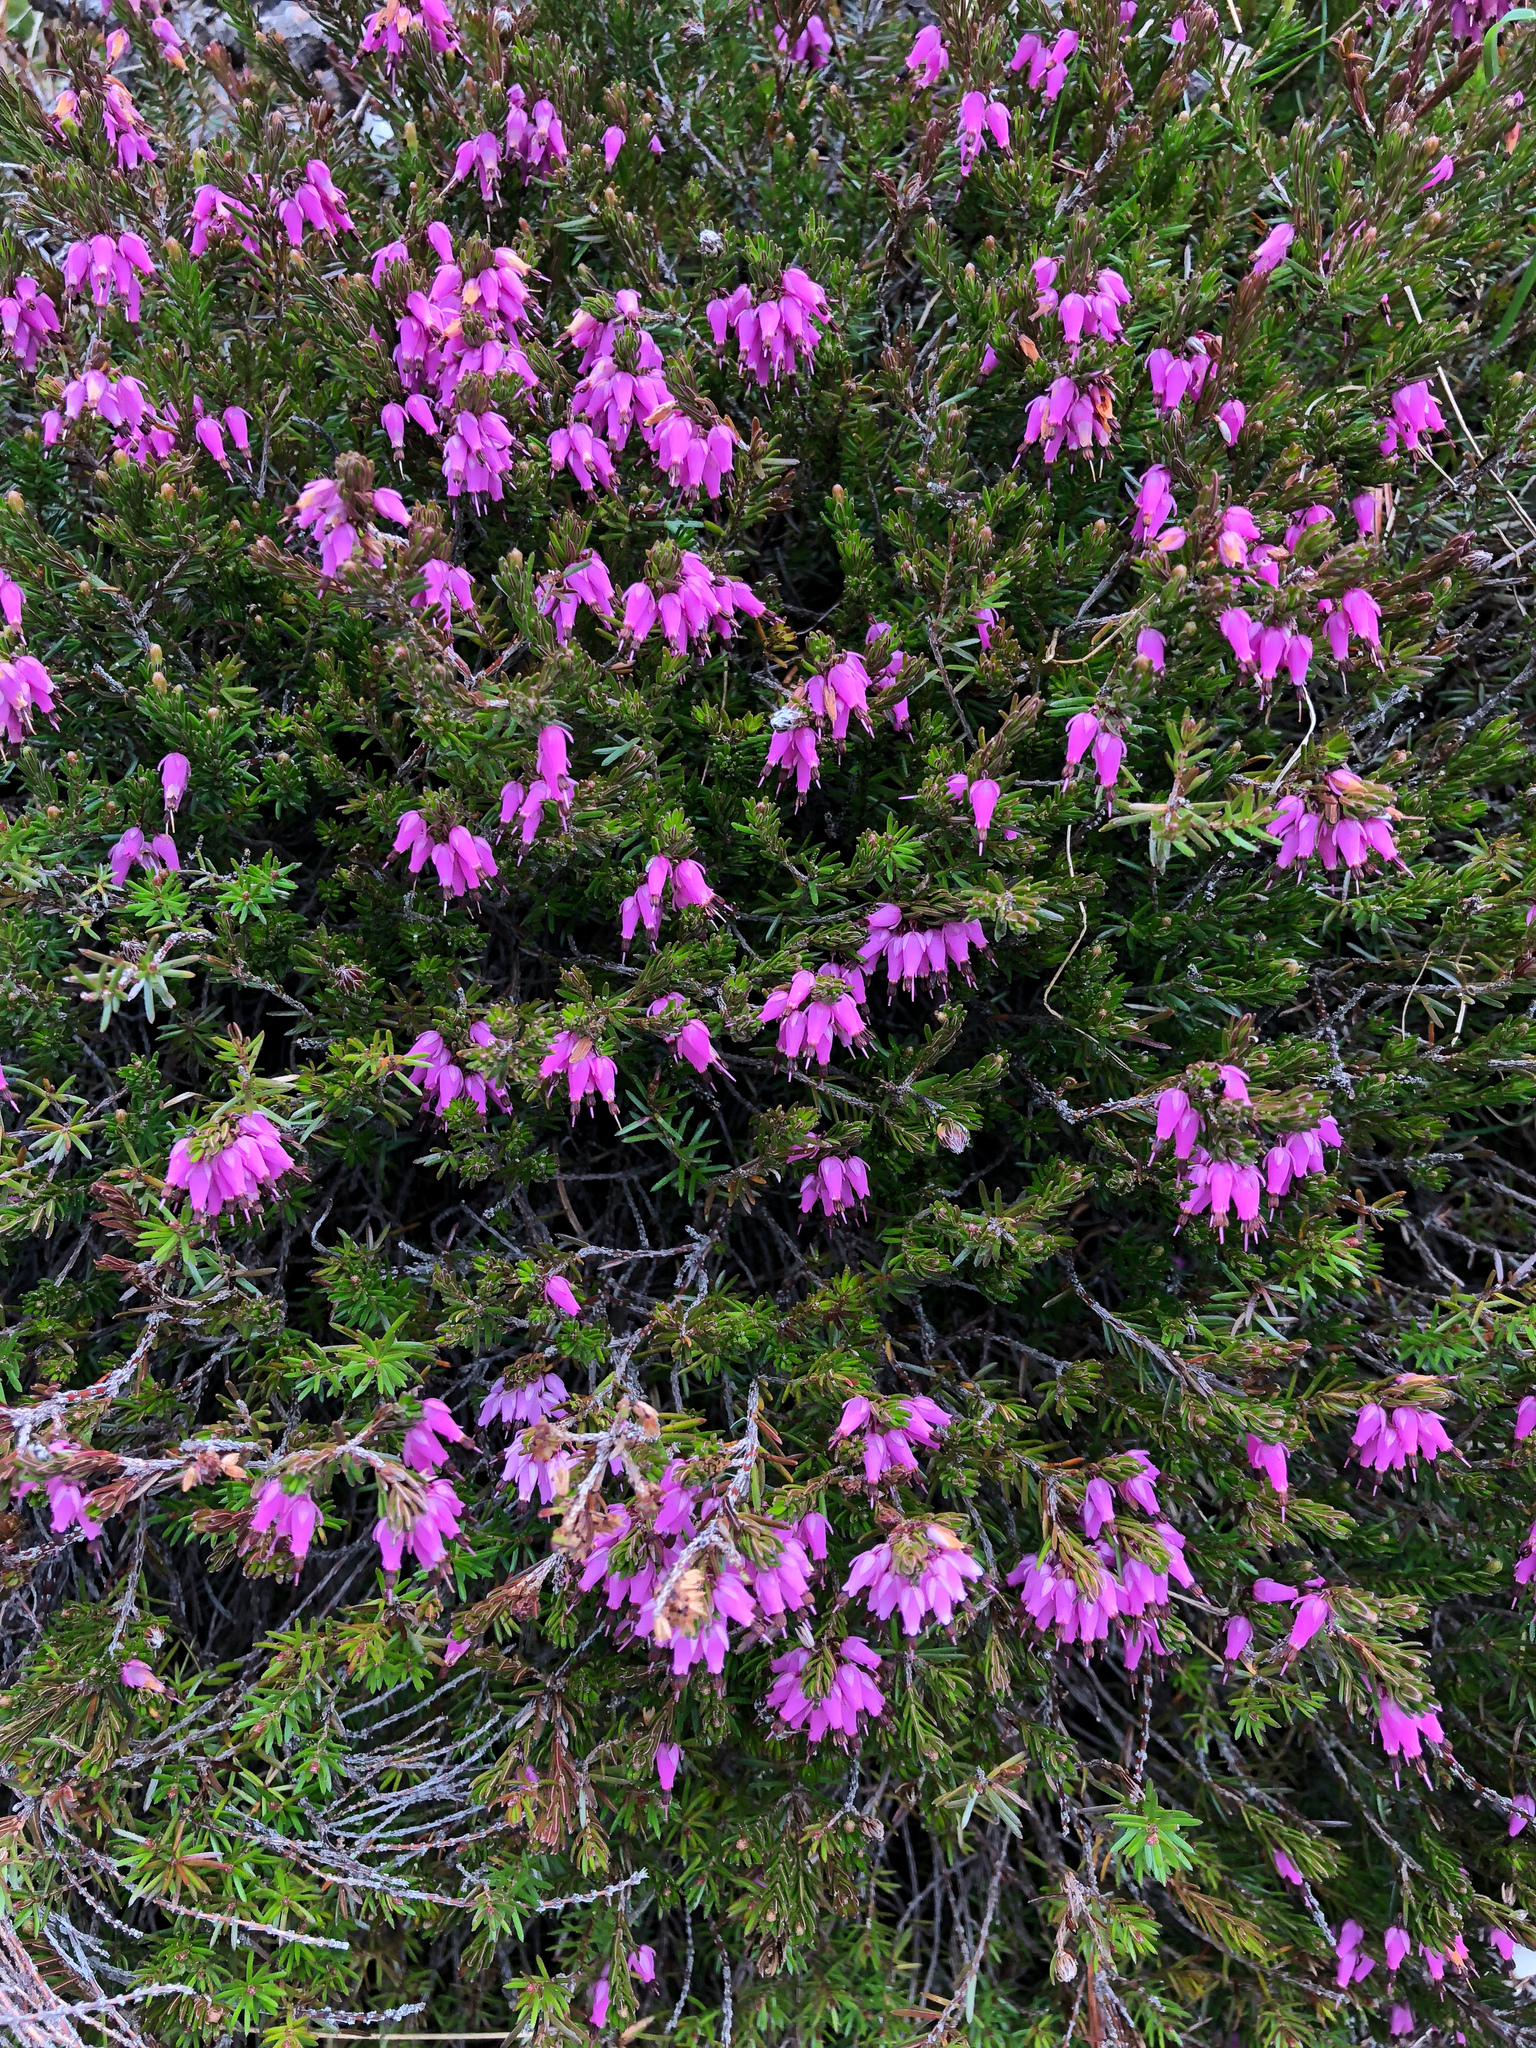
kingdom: Plantae
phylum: Tracheophyta
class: Magnoliopsida
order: Ericales
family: Ericaceae
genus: Erica
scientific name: Erica carnea
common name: Winter heath
